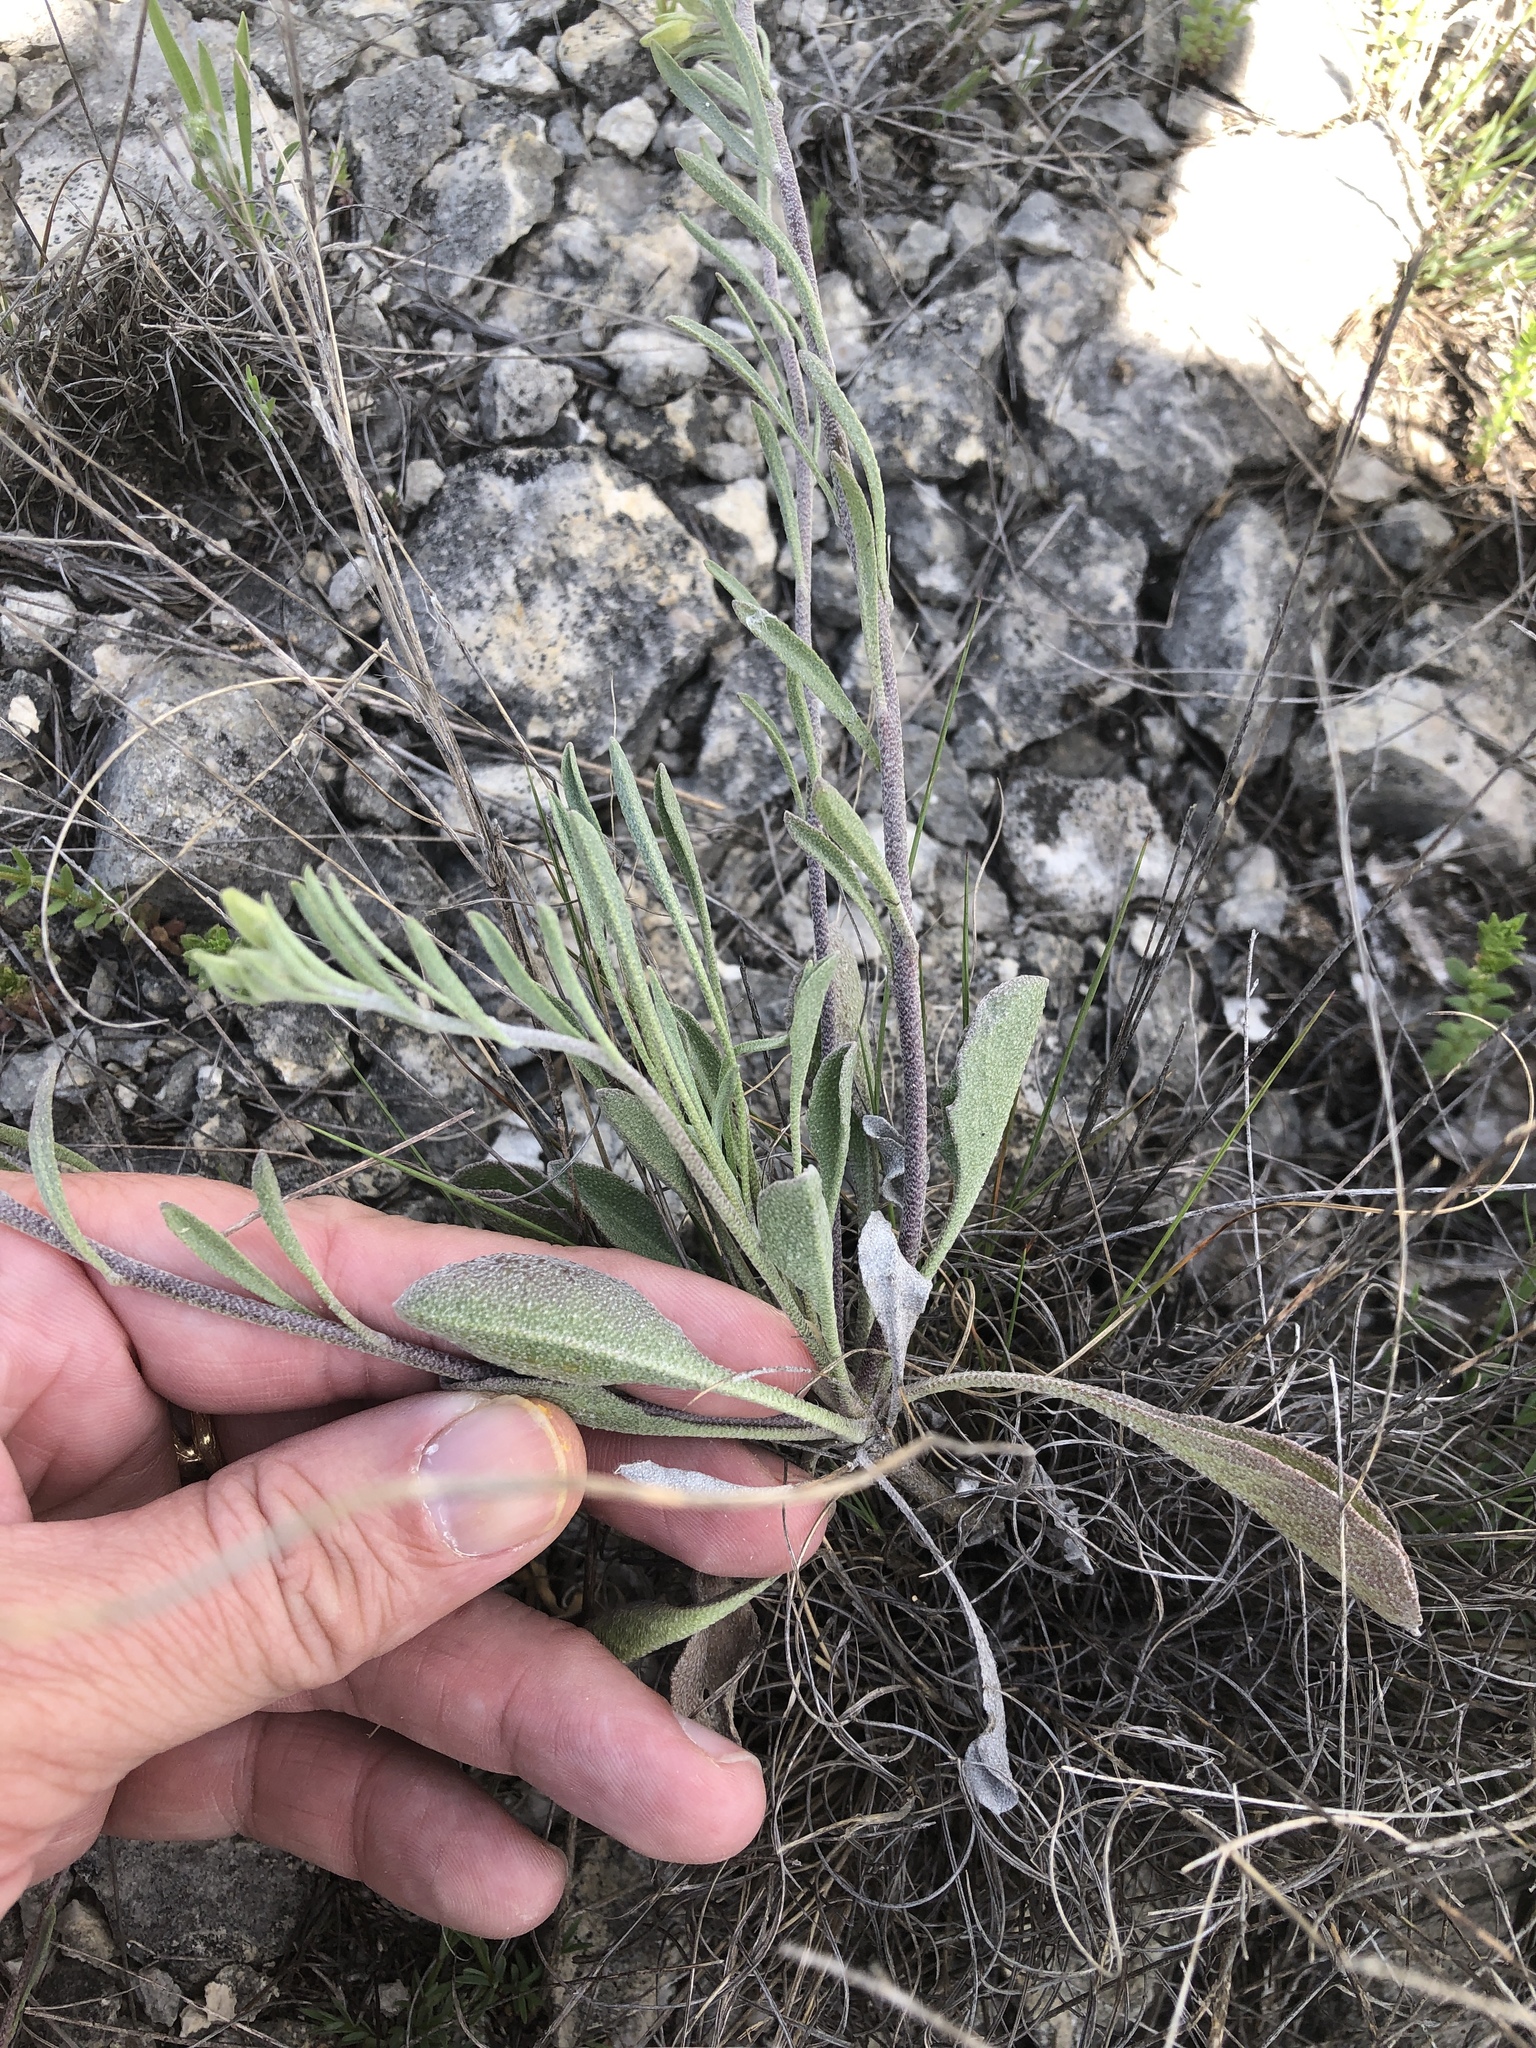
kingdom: Plantae
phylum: Tracheophyta
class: Magnoliopsida
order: Brassicales
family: Brassicaceae
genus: Physaria
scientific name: Physaria engelmannii
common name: Engelmann's bladderpod
